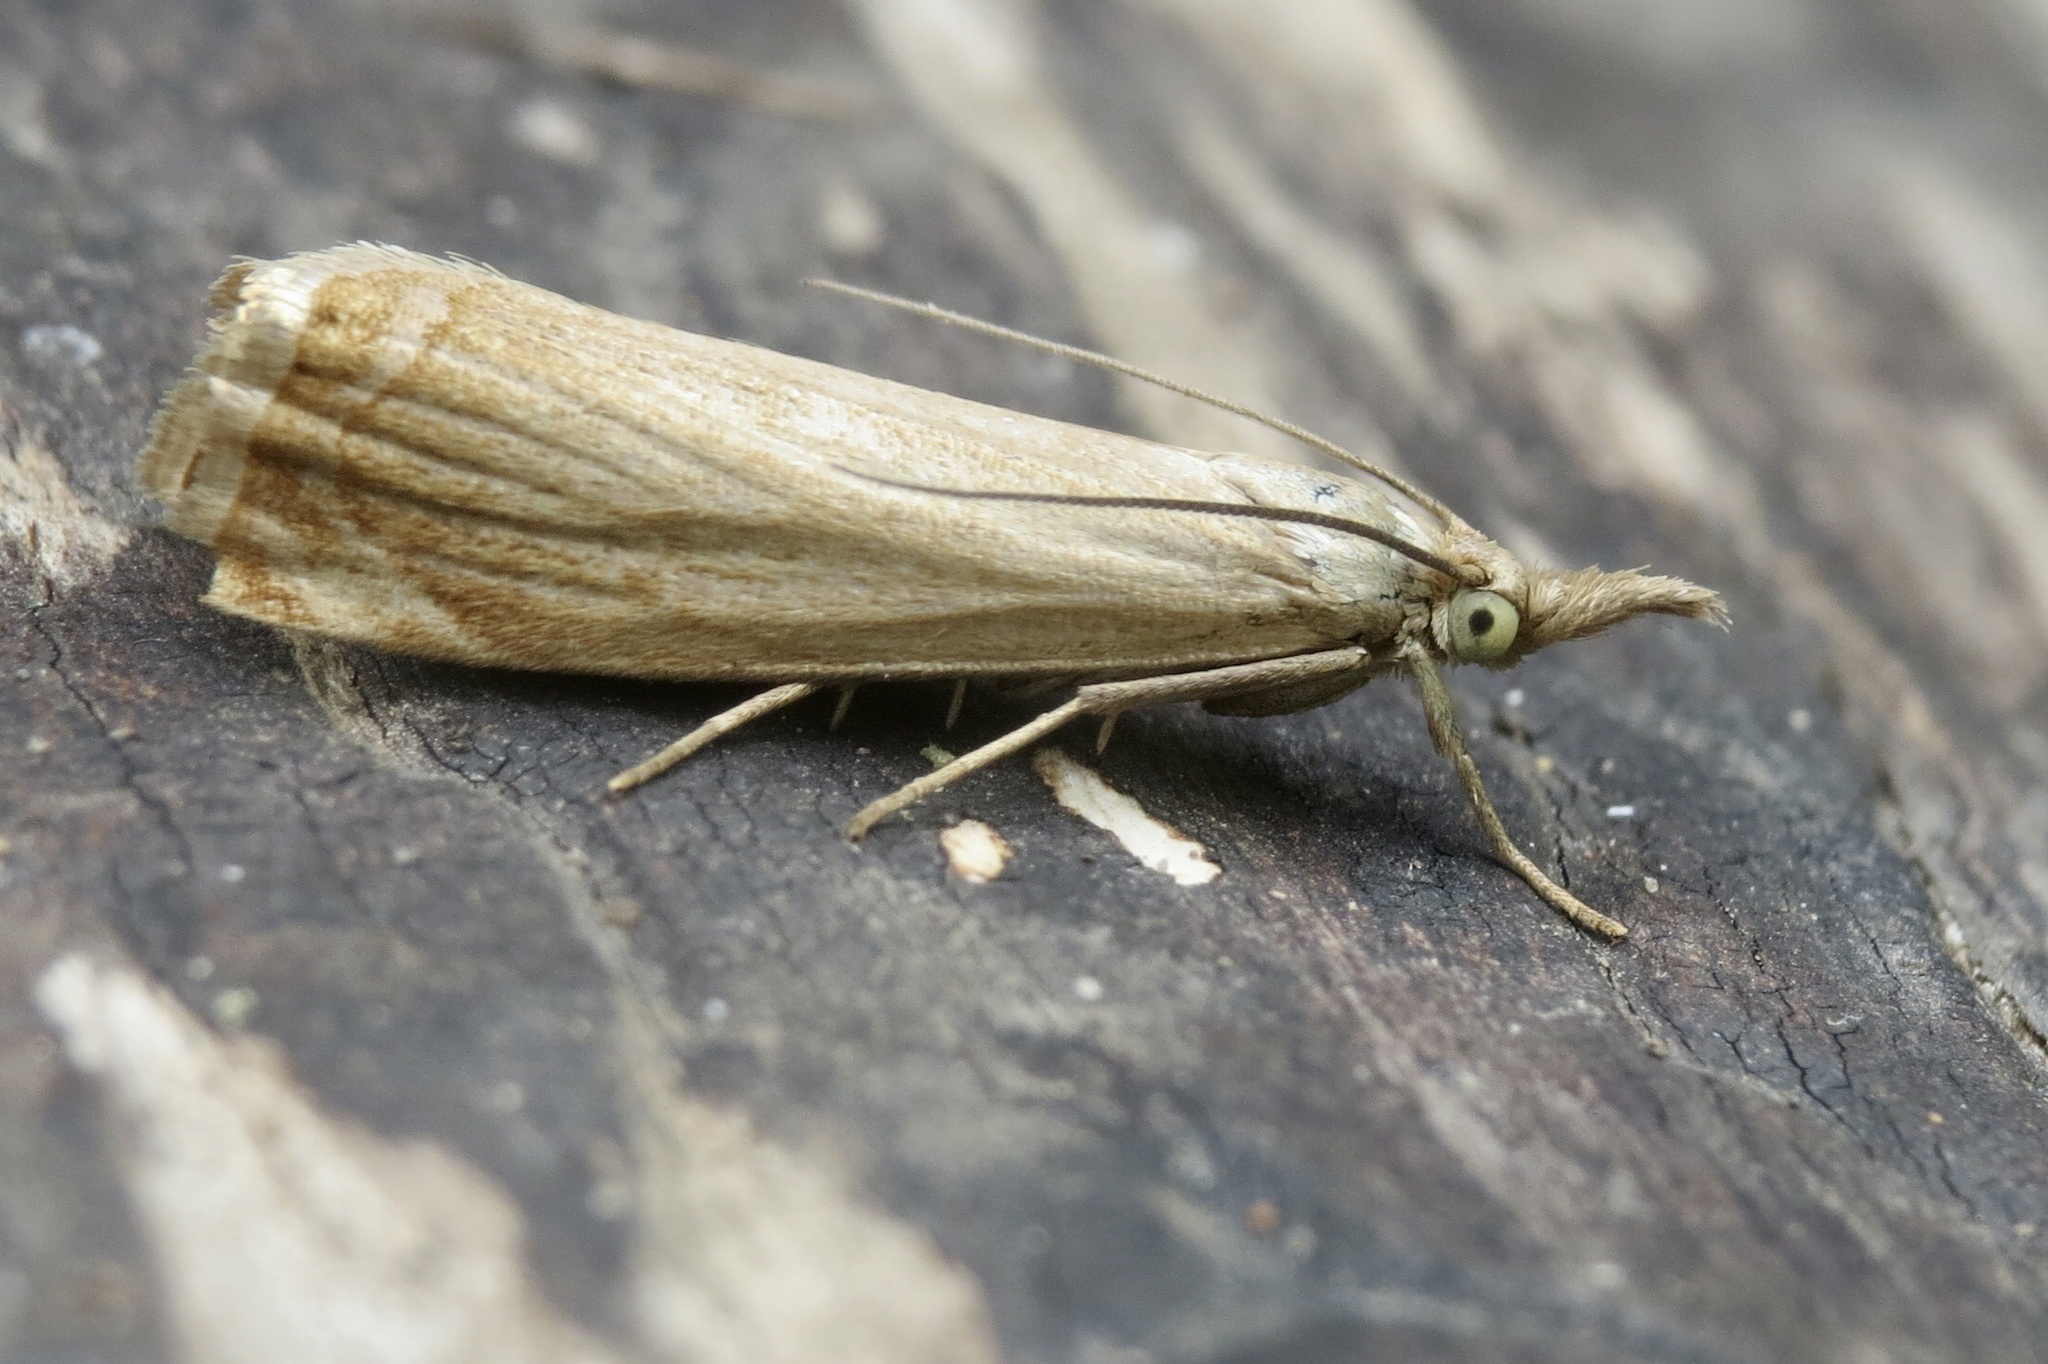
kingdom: Animalia
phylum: Arthropoda
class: Insecta
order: Lepidoptera
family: Crambidae
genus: Chrysoteuchia
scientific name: Chrysoteuchia culmella
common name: Garden grass-veneer
